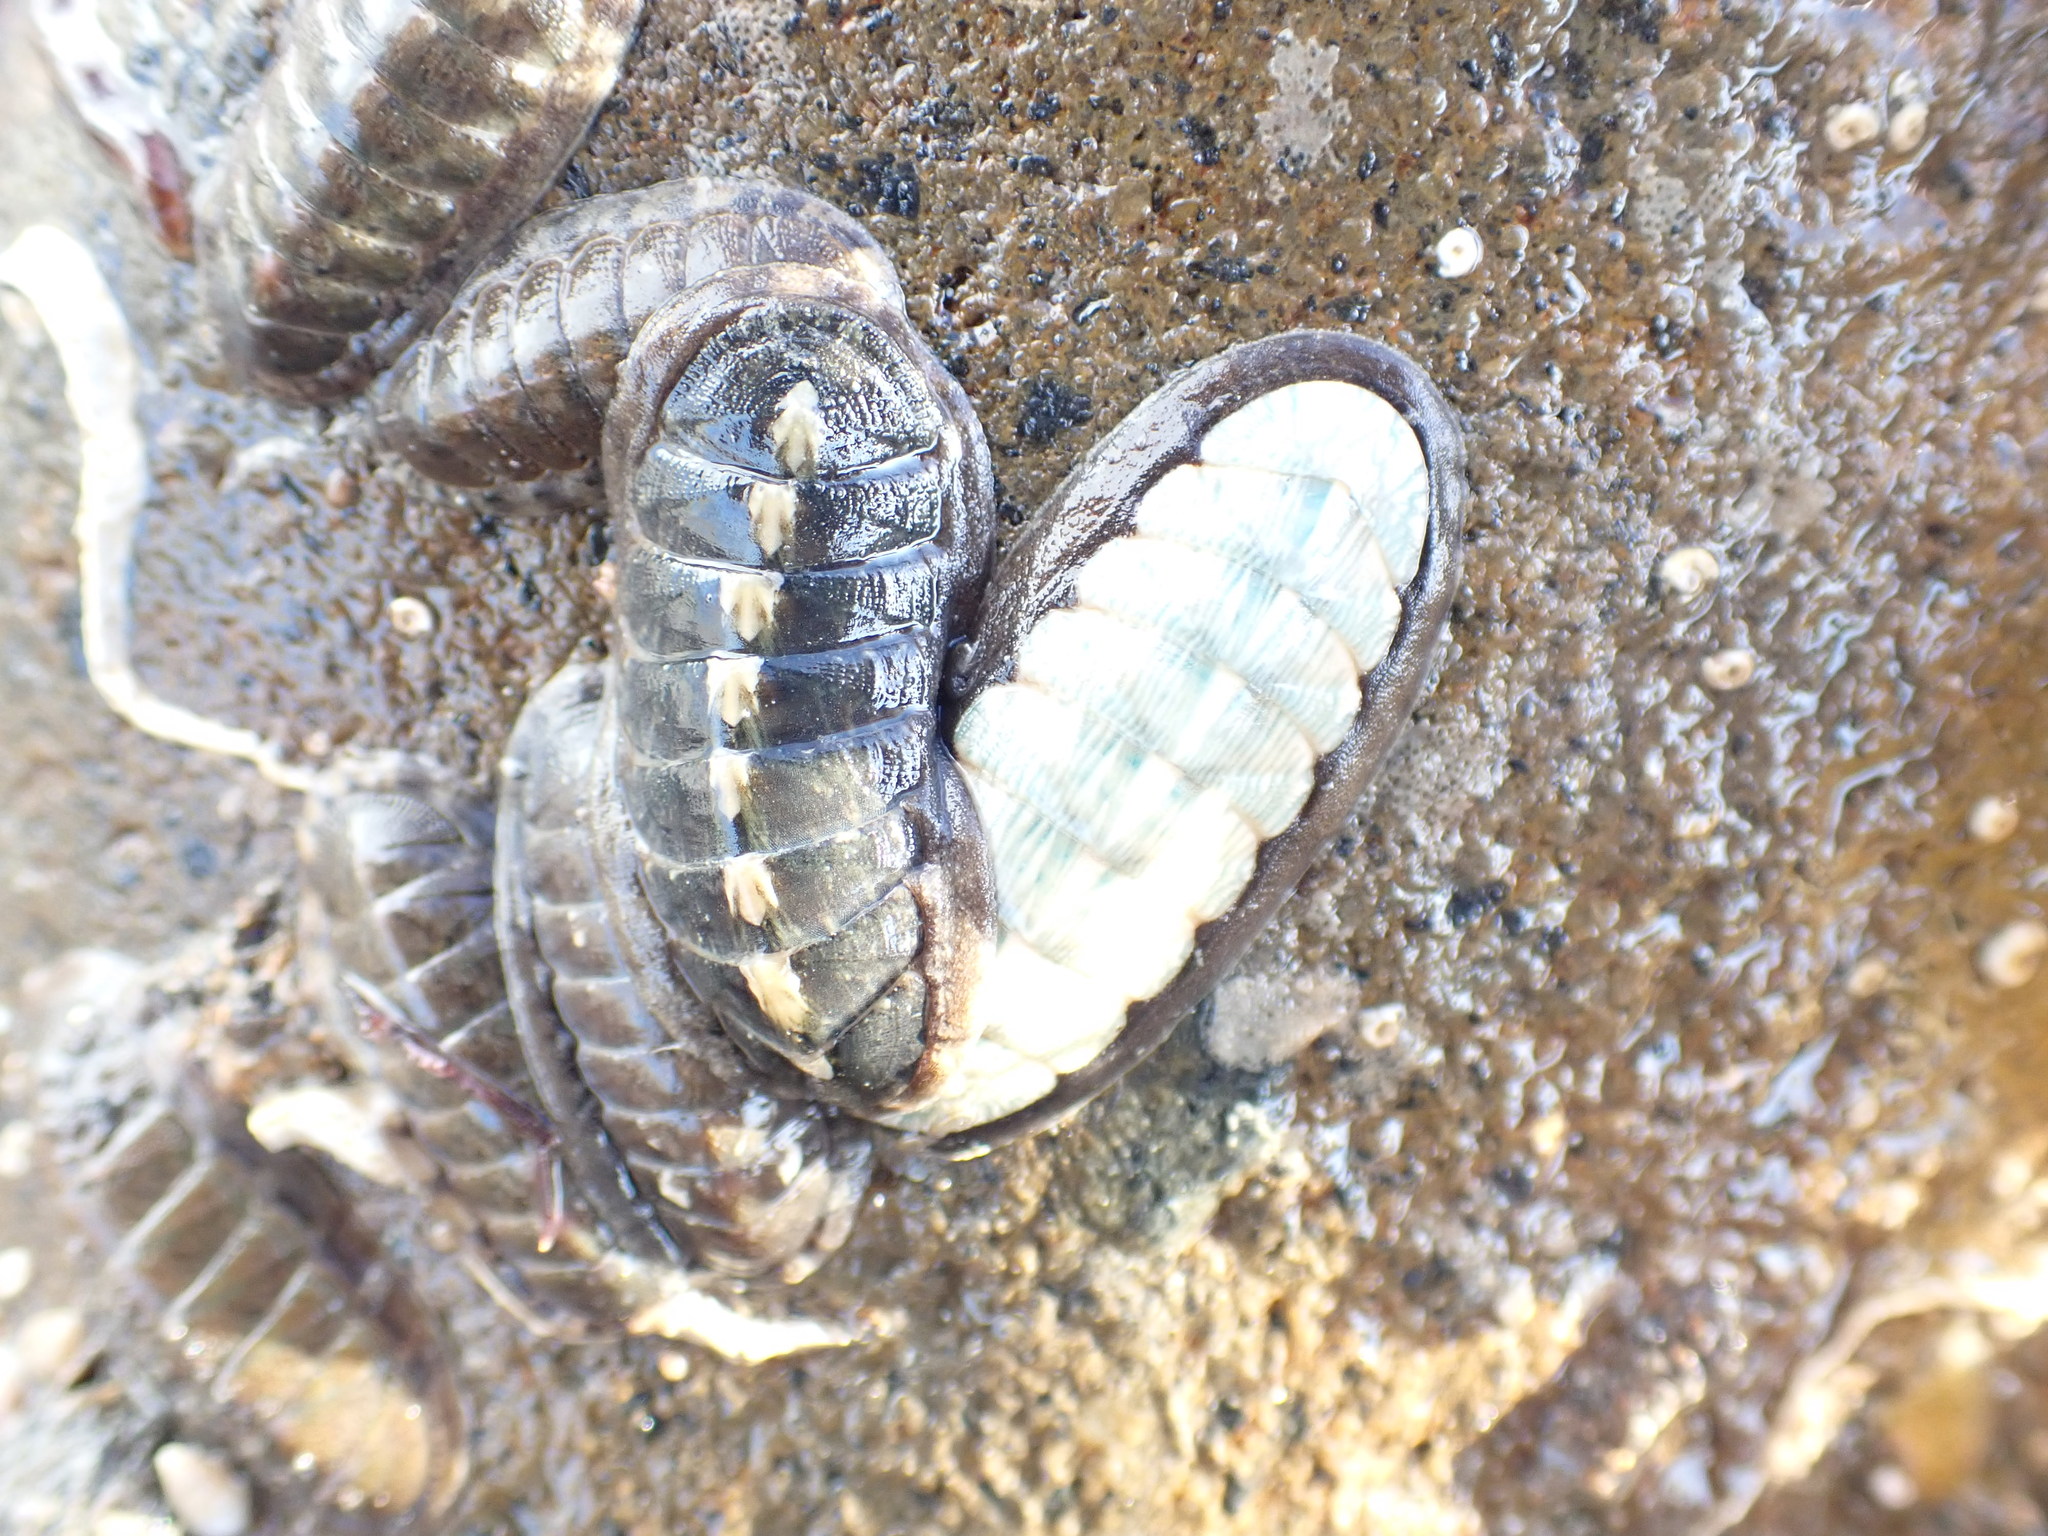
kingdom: Animalia
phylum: Mollusca
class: Polyplacophora
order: Chitonida
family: Ischnochitonidae
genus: Ischnochiton
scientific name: Ischnochiton maorianus
